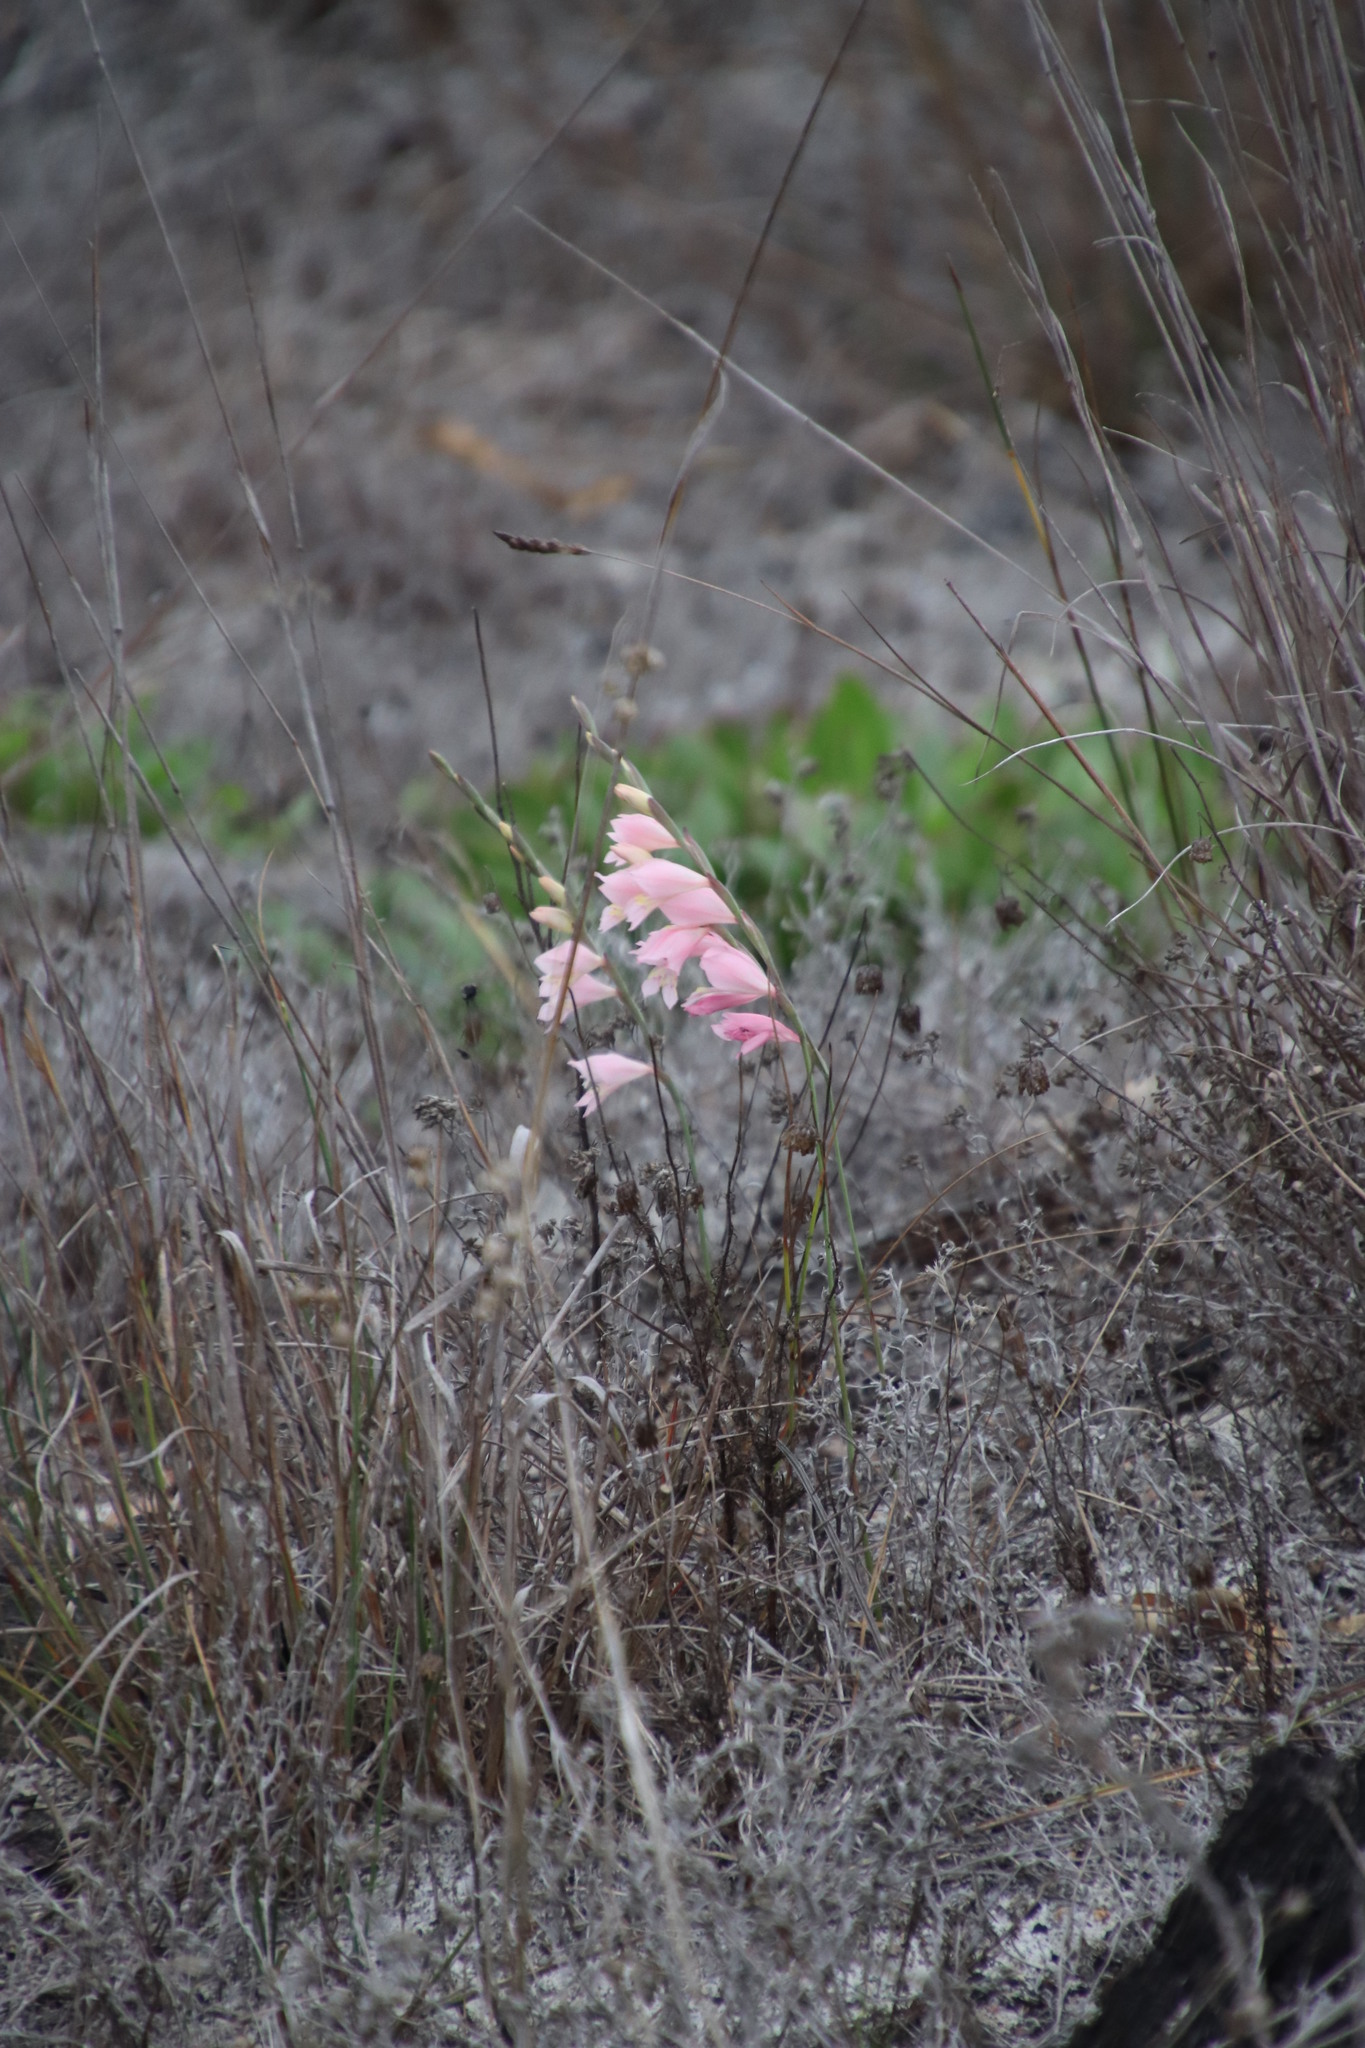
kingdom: Plantae
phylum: Tracheophyta
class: Liliopsida
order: Asparagales
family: Iridaceae
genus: Gladiolus
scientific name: Gladiolus brevifolius
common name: March pypie
